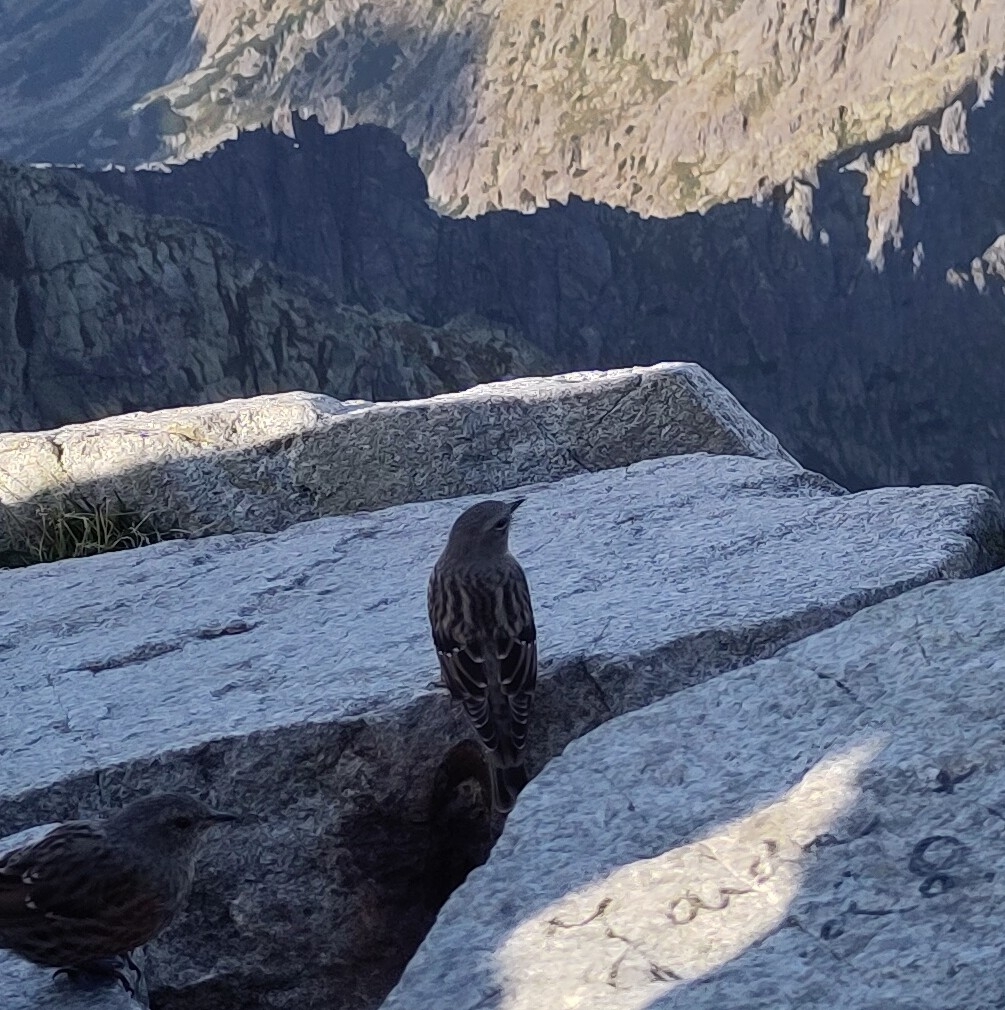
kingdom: Animalia
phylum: Chordata
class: Aves
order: Passeriformes
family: Prunellidae
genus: Prunella
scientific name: Prunella collaris
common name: Alpine accentor
